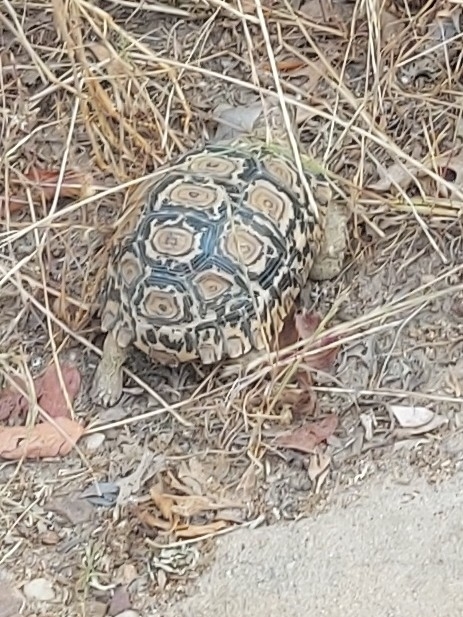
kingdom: Animalia
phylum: Chordata
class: Testudines
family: Testudinidae
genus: Stigmochelys
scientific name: Stigmochelys pardalis
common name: Leopard tortoise
